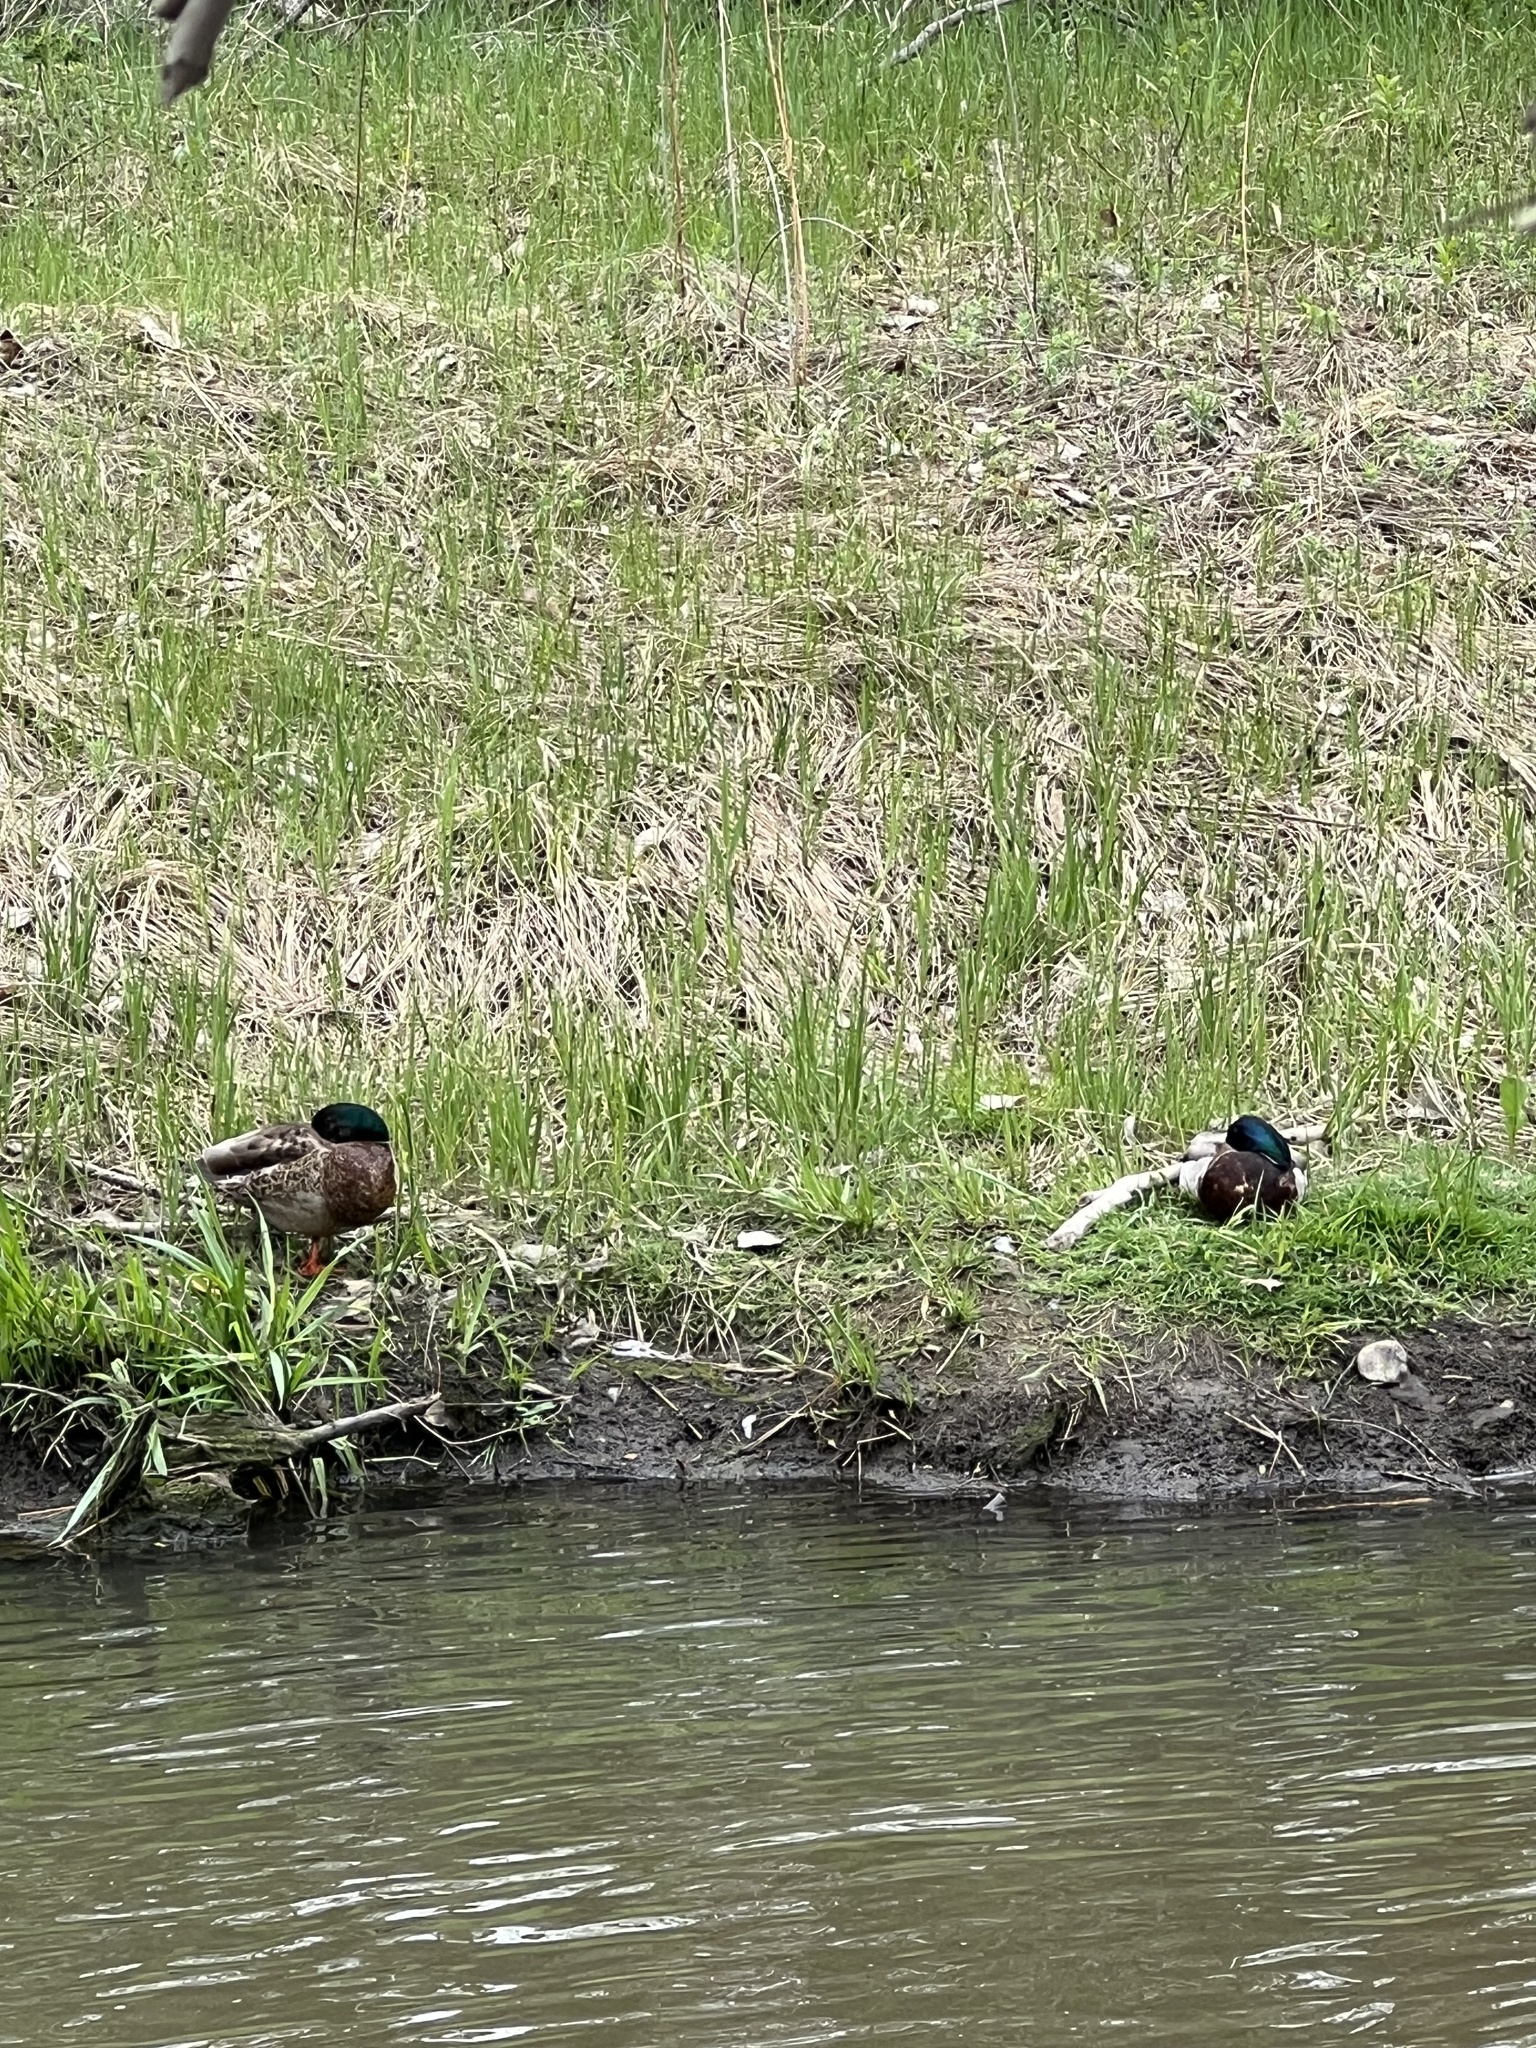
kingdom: Animalia
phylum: Chordata
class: Aves
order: Anseriformes
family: Anatidae
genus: Anas
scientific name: Anas platyrhynchos
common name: Mallard
